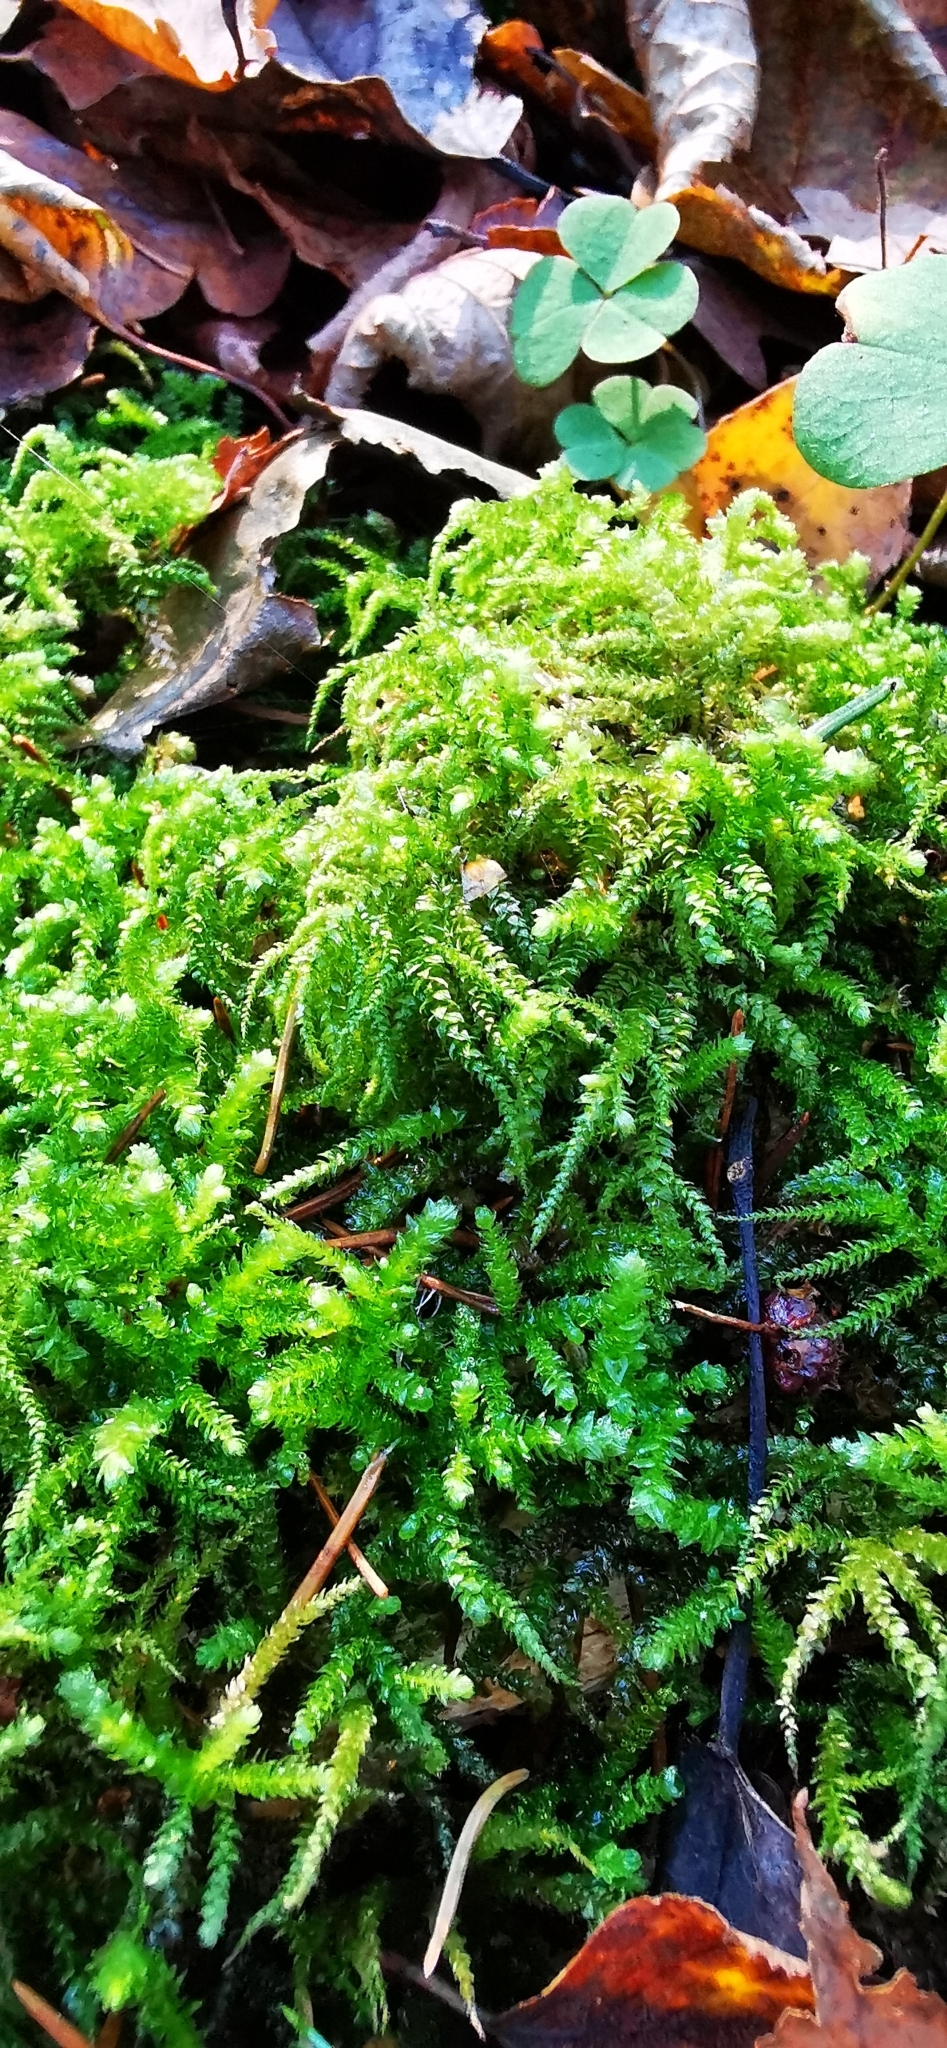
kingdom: Plantae
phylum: Bryophyta
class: Bryopsida
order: Hypnales
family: Brachytheciaceae
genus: Eurhynchium
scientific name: Eurhynchium angustirete
